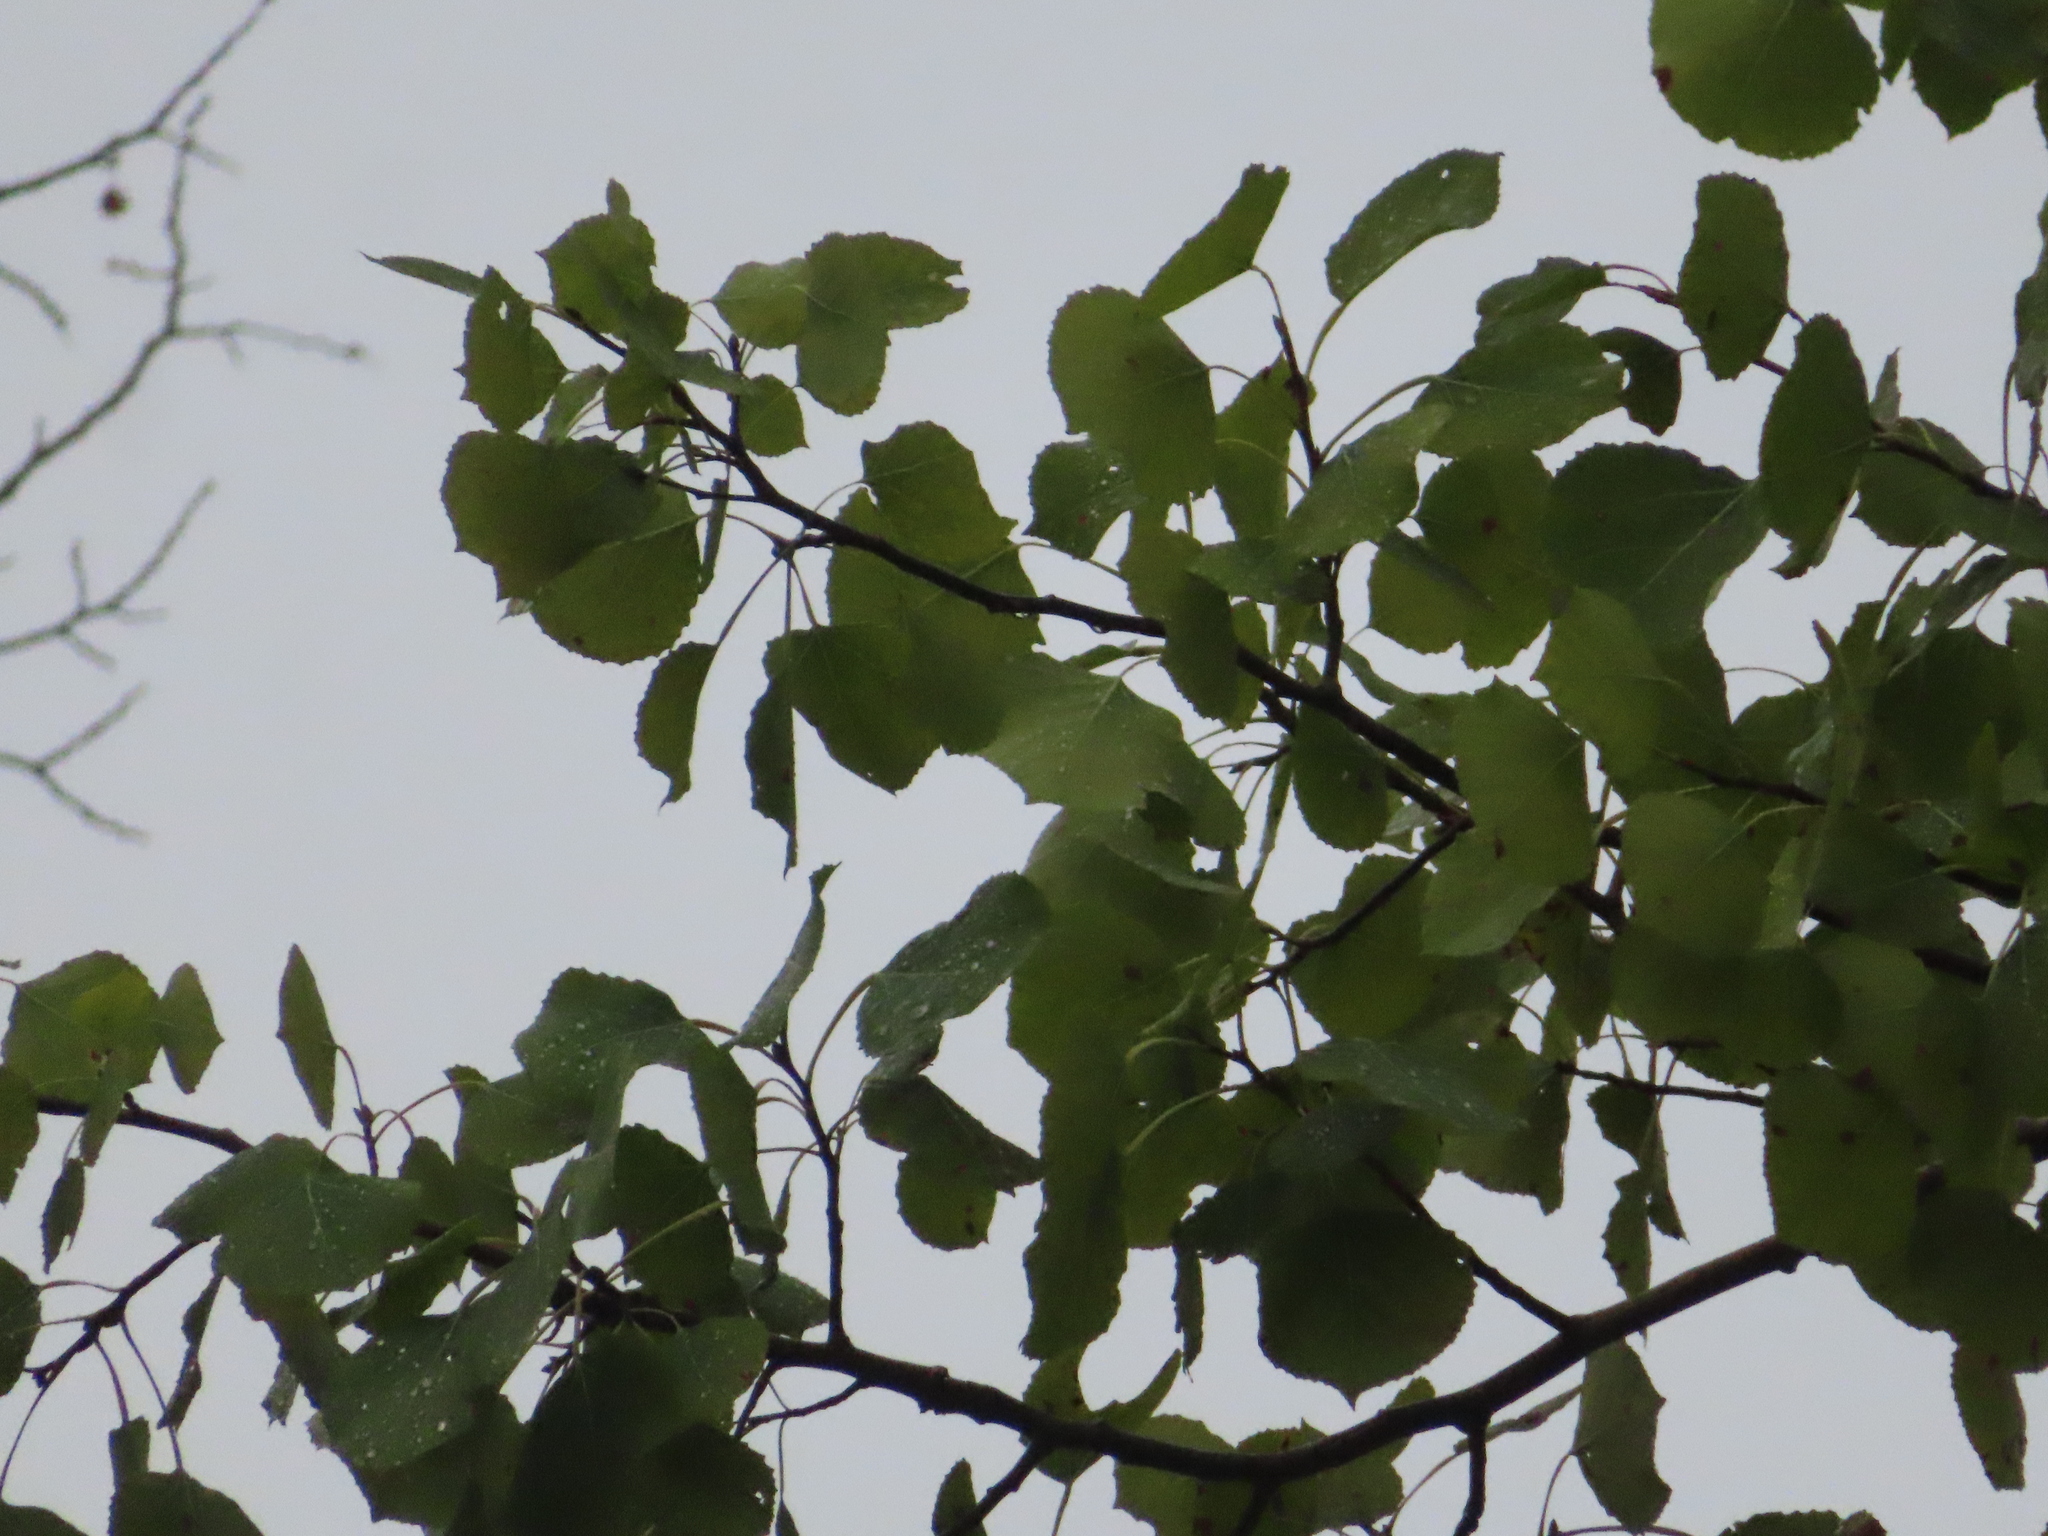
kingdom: Plantae
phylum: Tracheophyta
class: Magnoliopsida
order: Malpighiales
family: Salicaceae
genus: Populus
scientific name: Populus deltoides
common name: Eastern cottonwood
